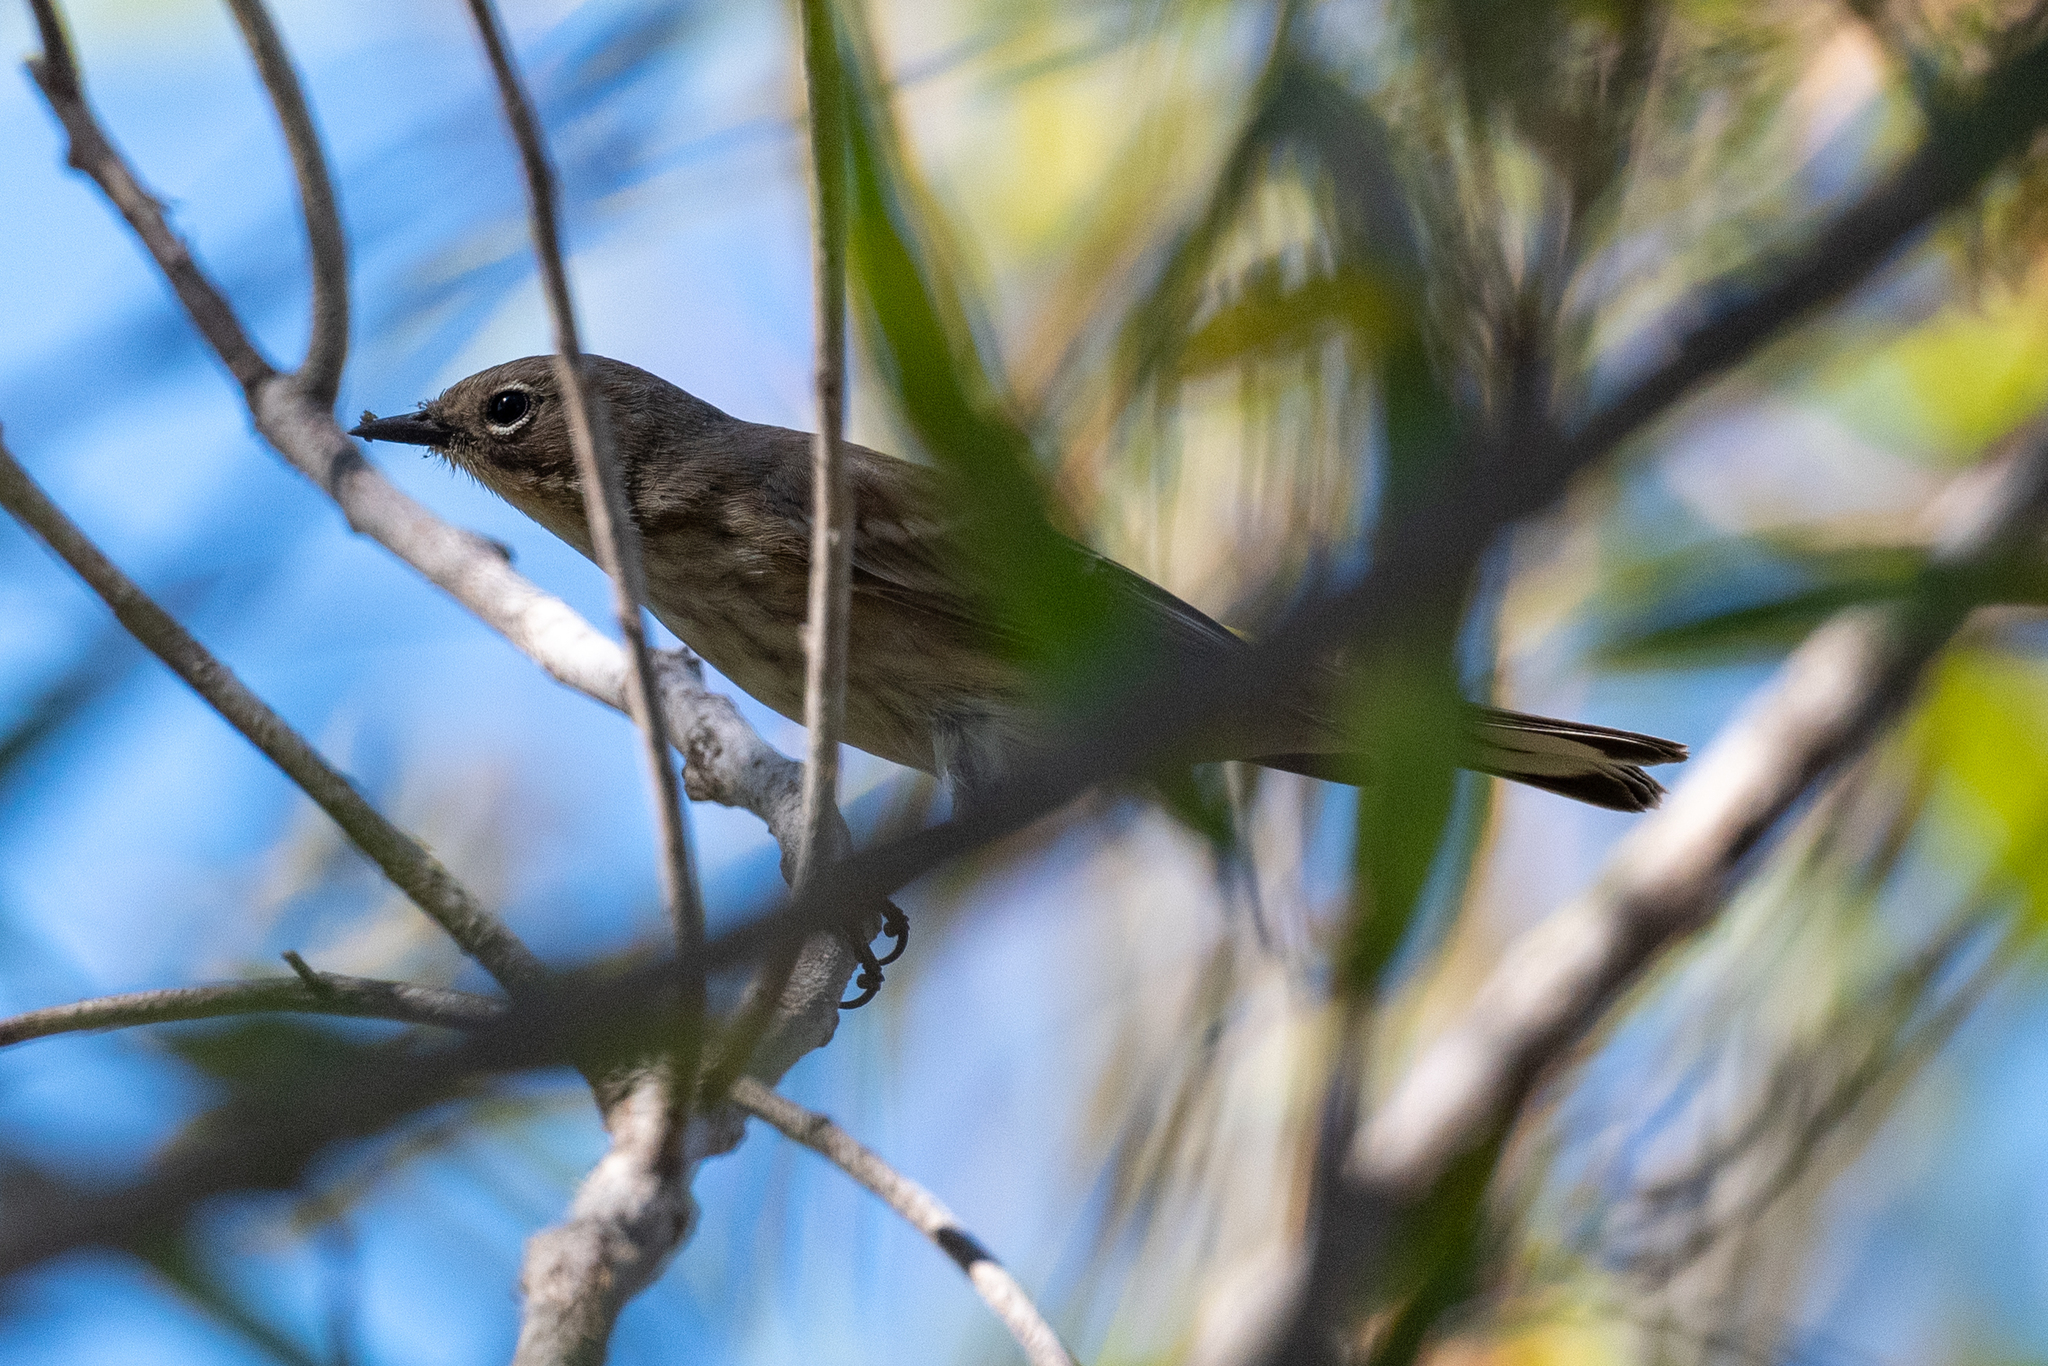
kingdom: Animalia
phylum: Chordata
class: Aves
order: Passeriformes
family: Parulidae
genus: Setophaga
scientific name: Setophaga coronata
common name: Myrtle warbler
